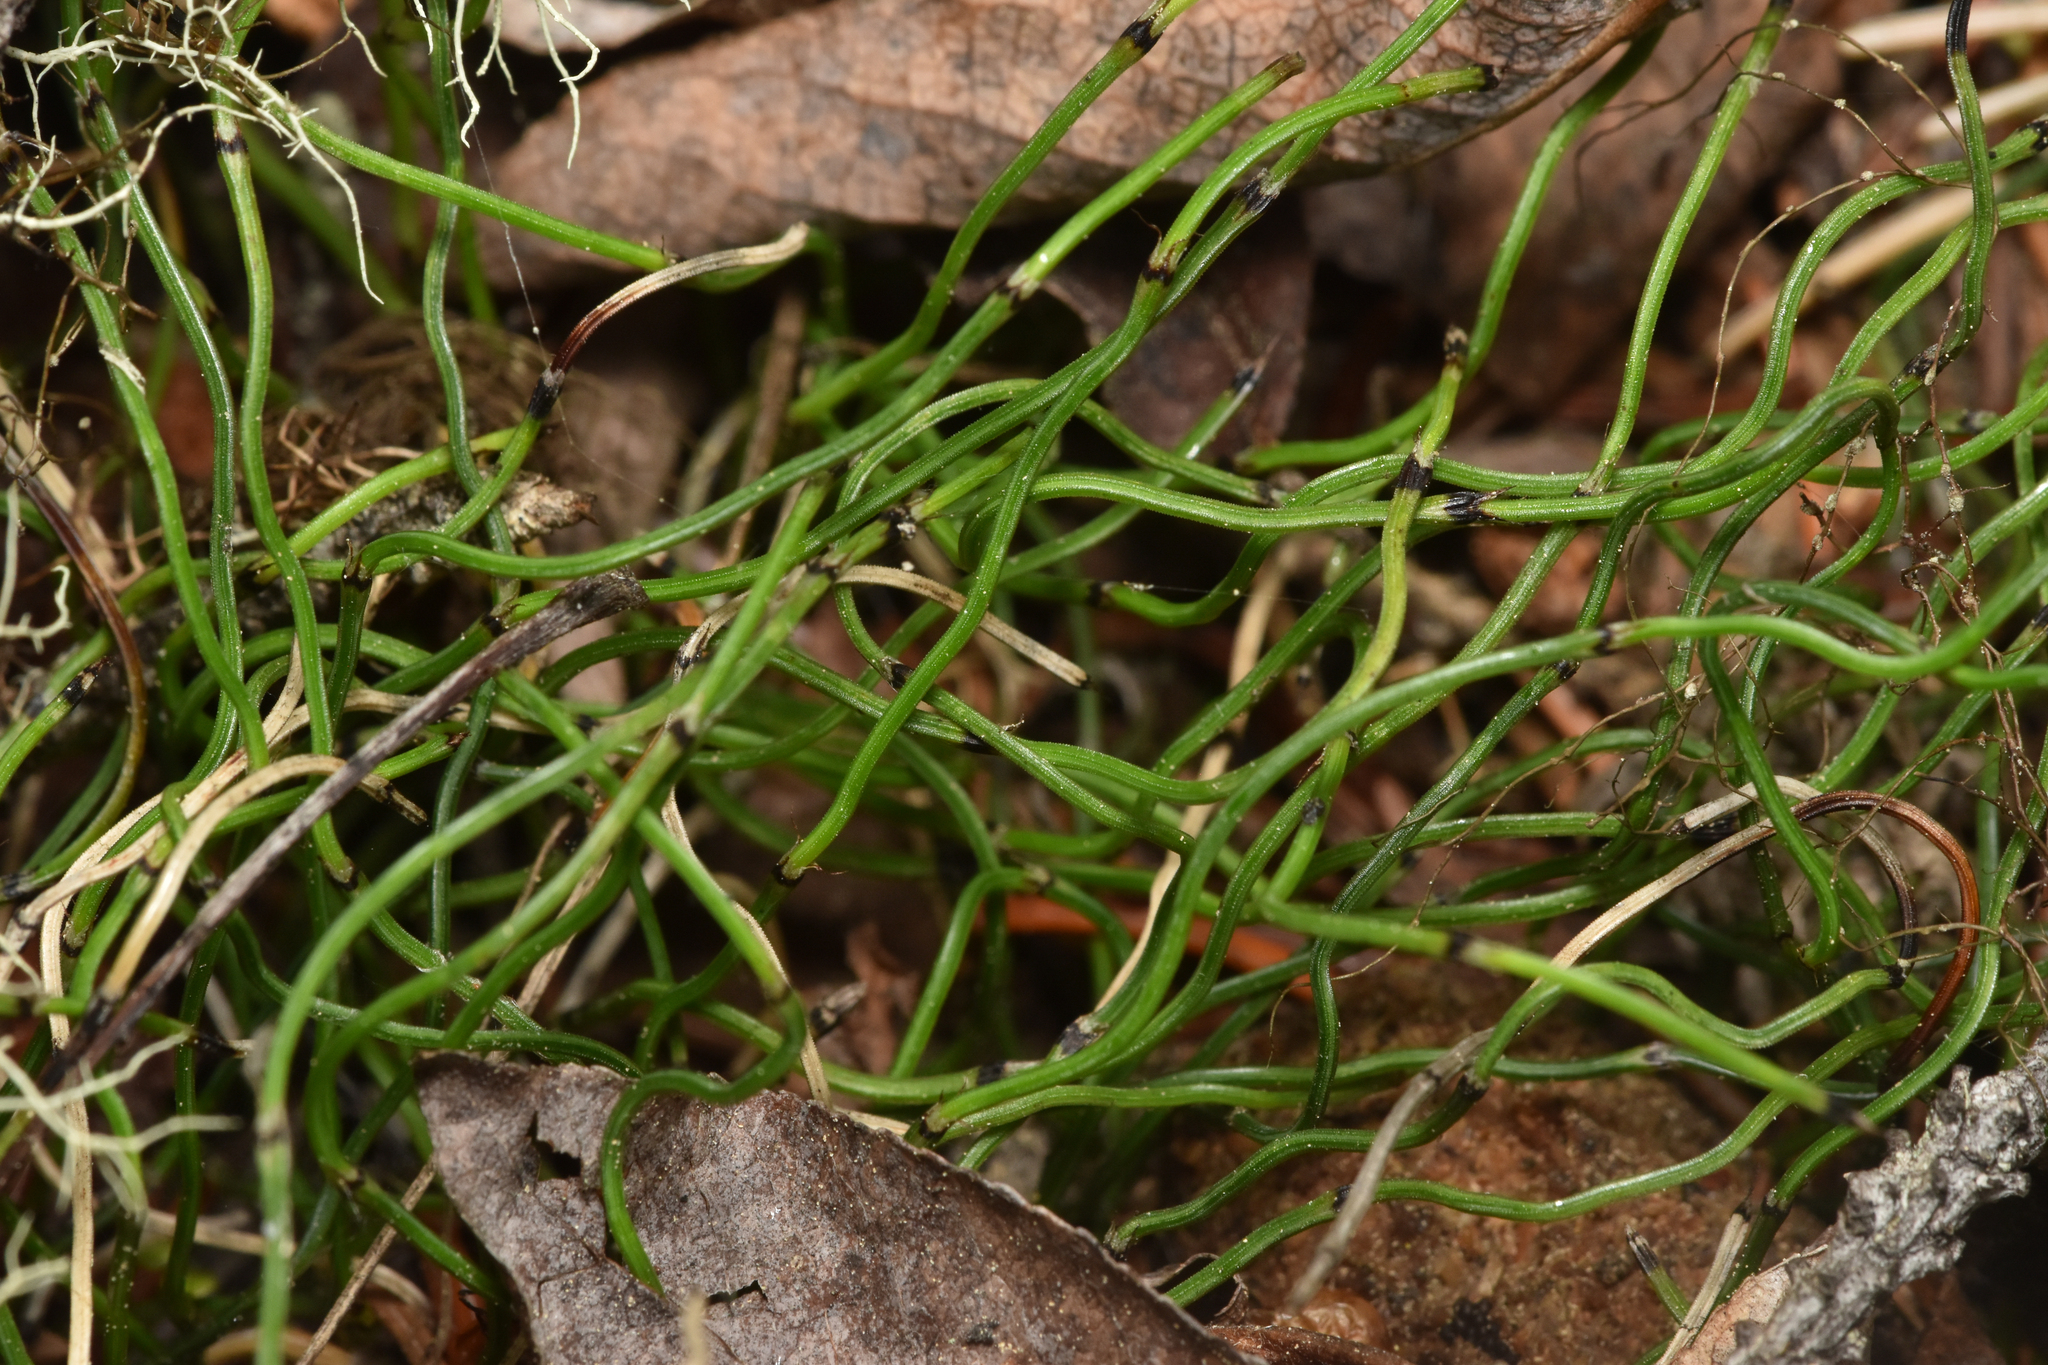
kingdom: Plantae
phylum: Tracheophyta
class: Polypodiopsida
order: Equisetales
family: Equisetaceae
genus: Equisetum
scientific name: Equisetum scirpoides
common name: Delicate horsetail
